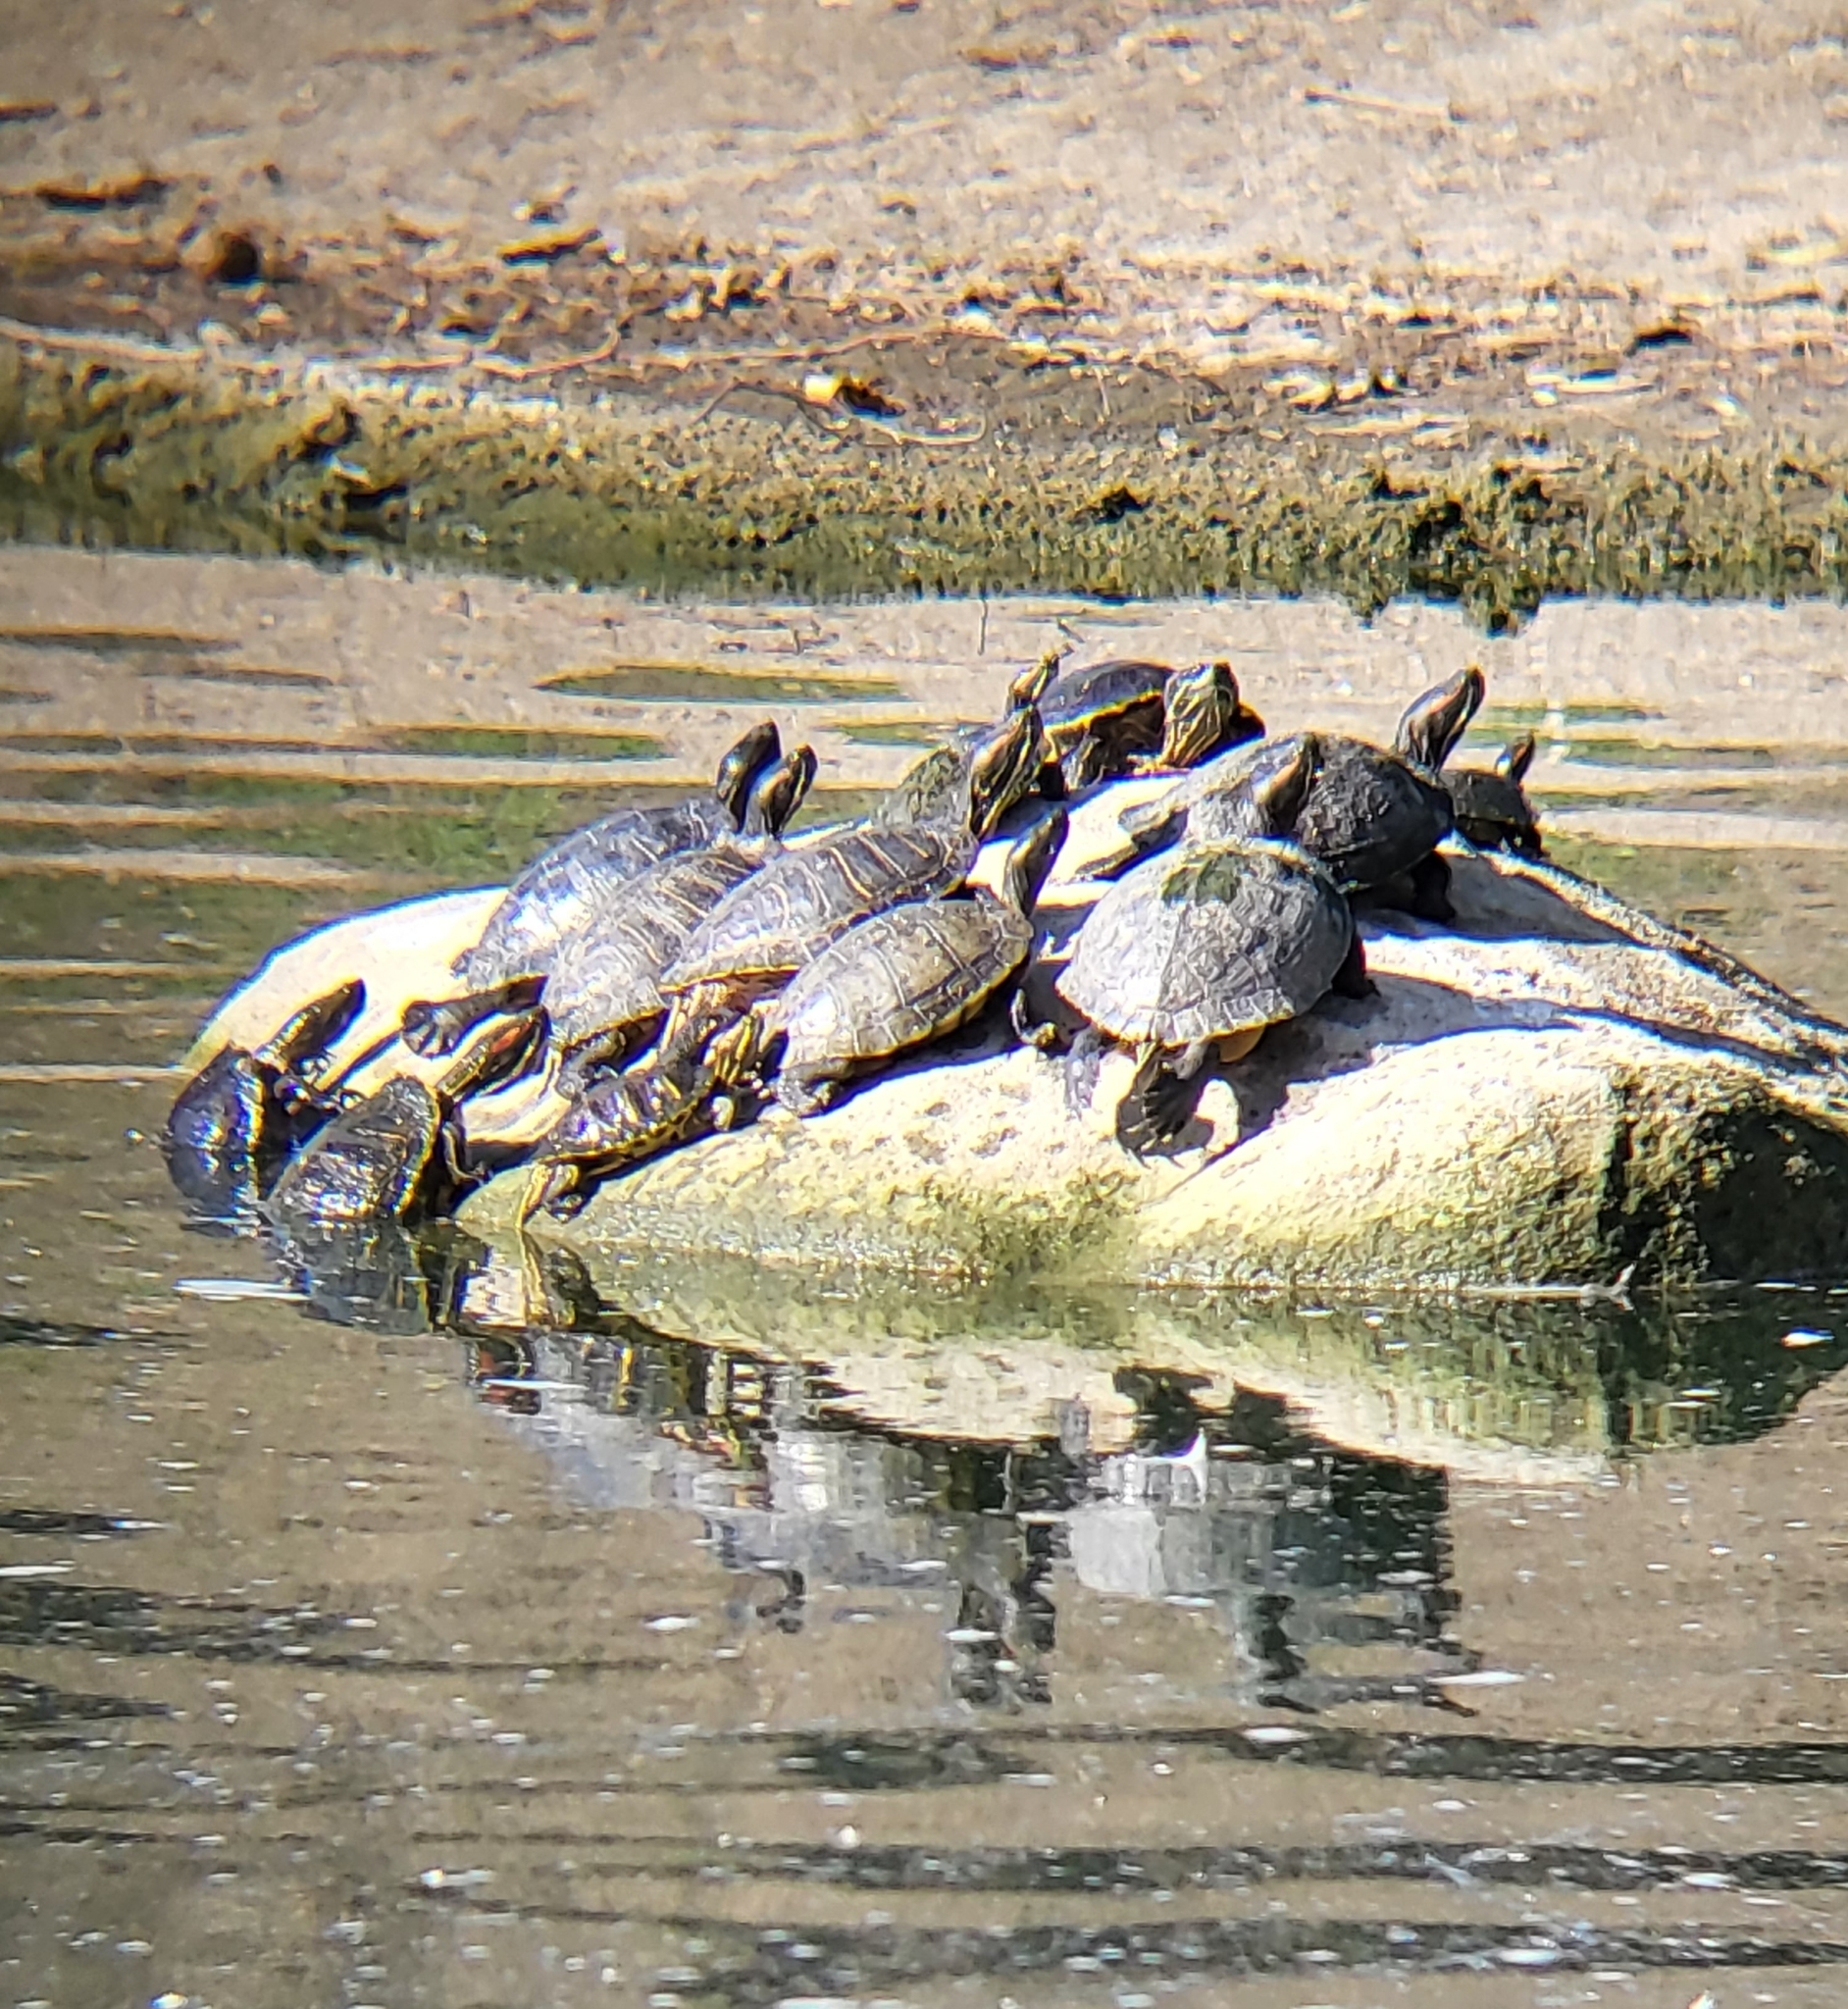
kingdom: Animalia
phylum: Chordata
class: Testudines
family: Emydidae
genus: Trachemys
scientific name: Trachemys scripta
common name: Slider
